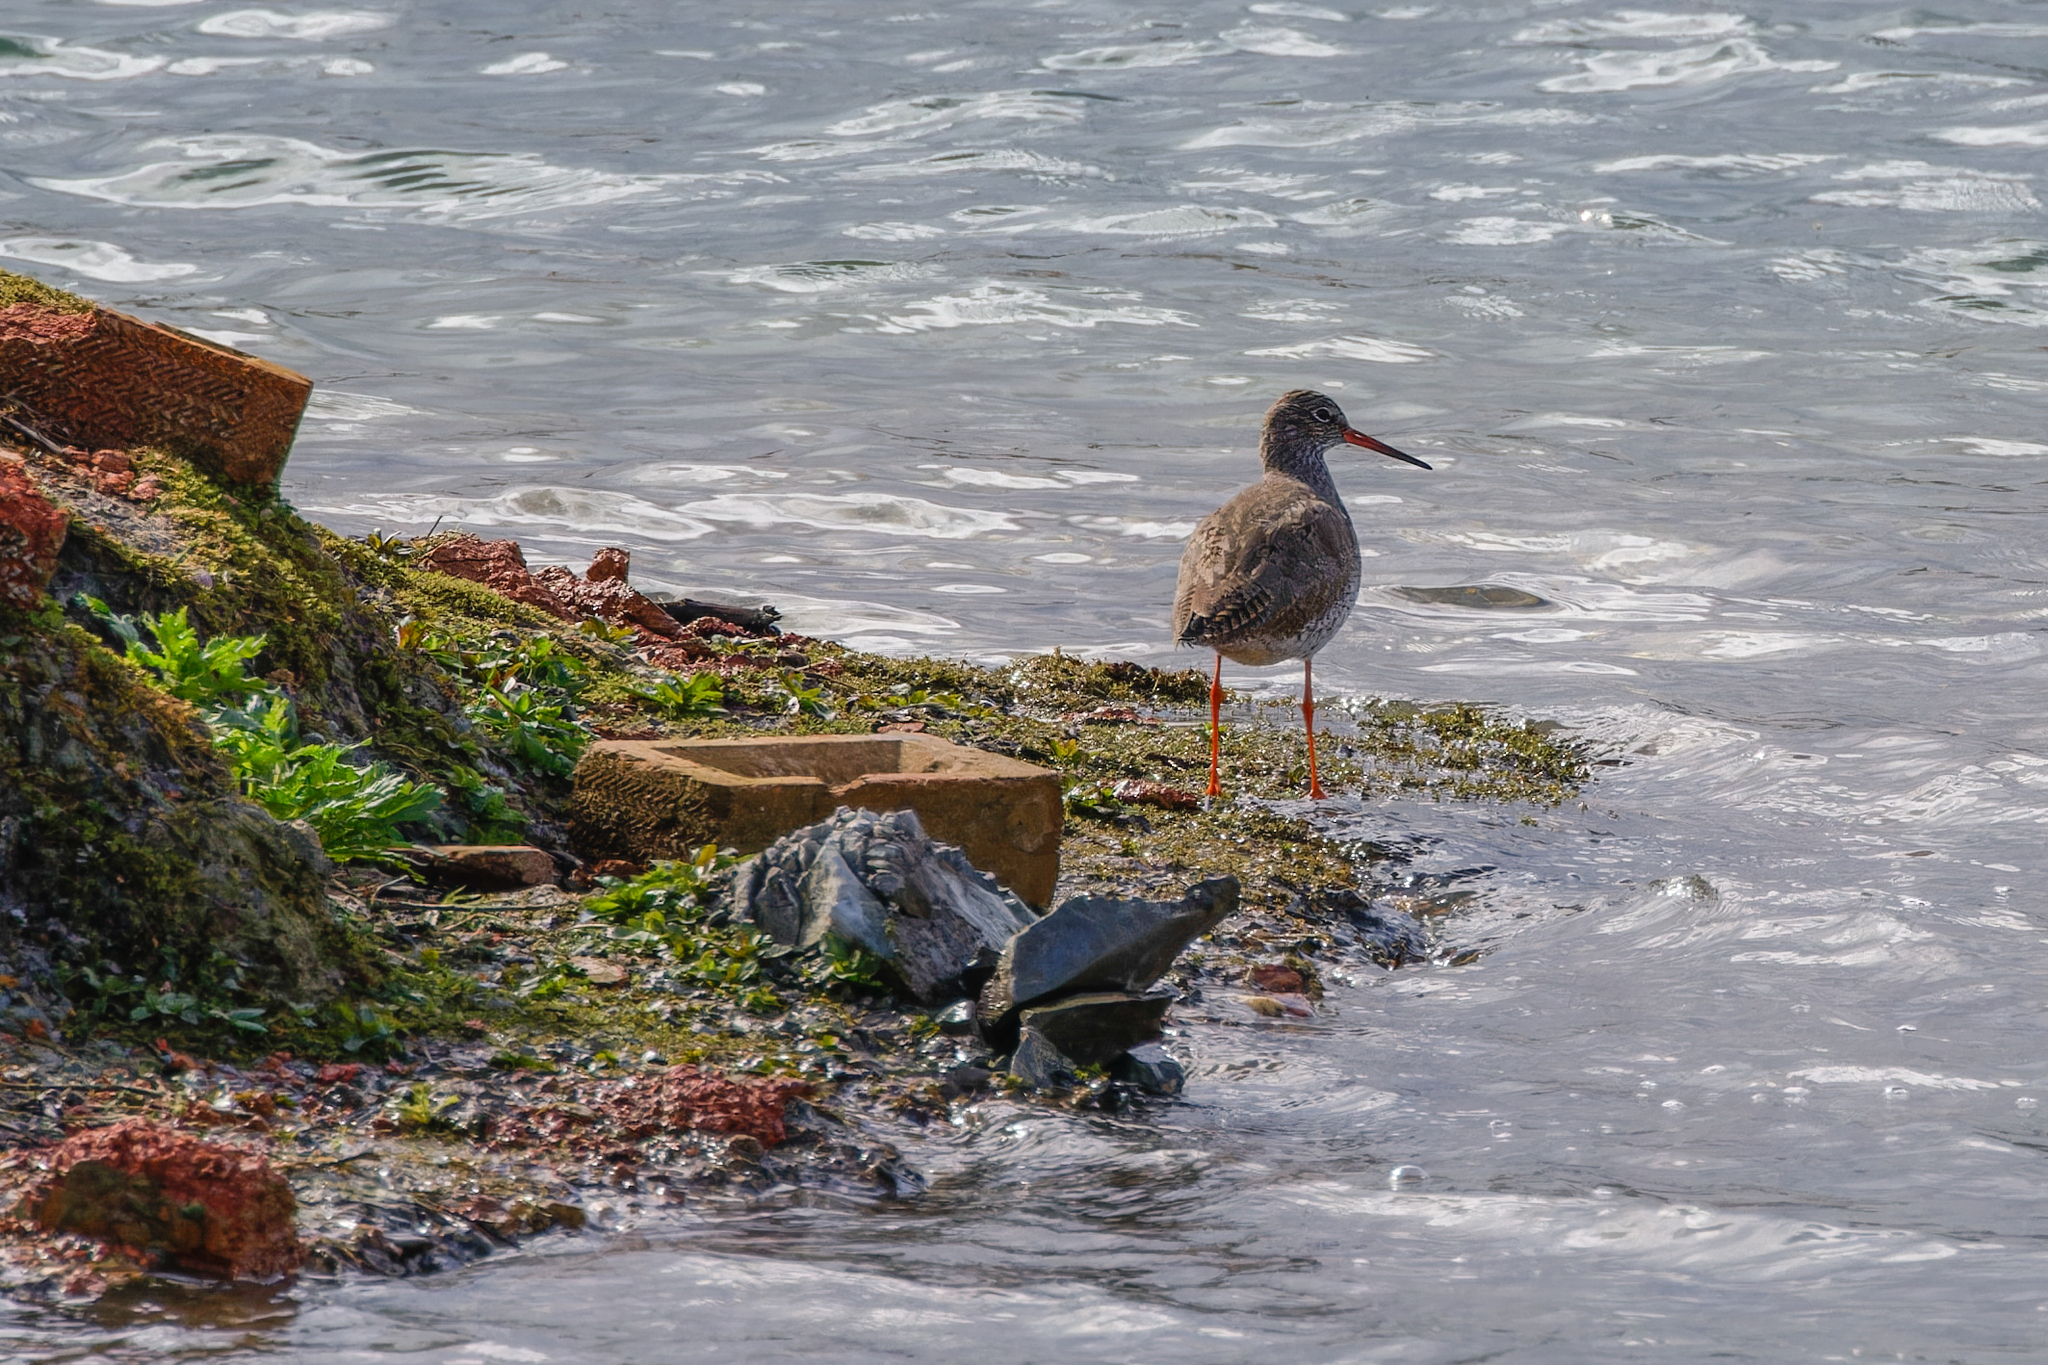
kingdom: Animalia
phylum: Chordata
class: Aves
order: Charadriiformes
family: Scolopacidae
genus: Tringa
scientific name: Tringa totanus
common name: Common redshank
